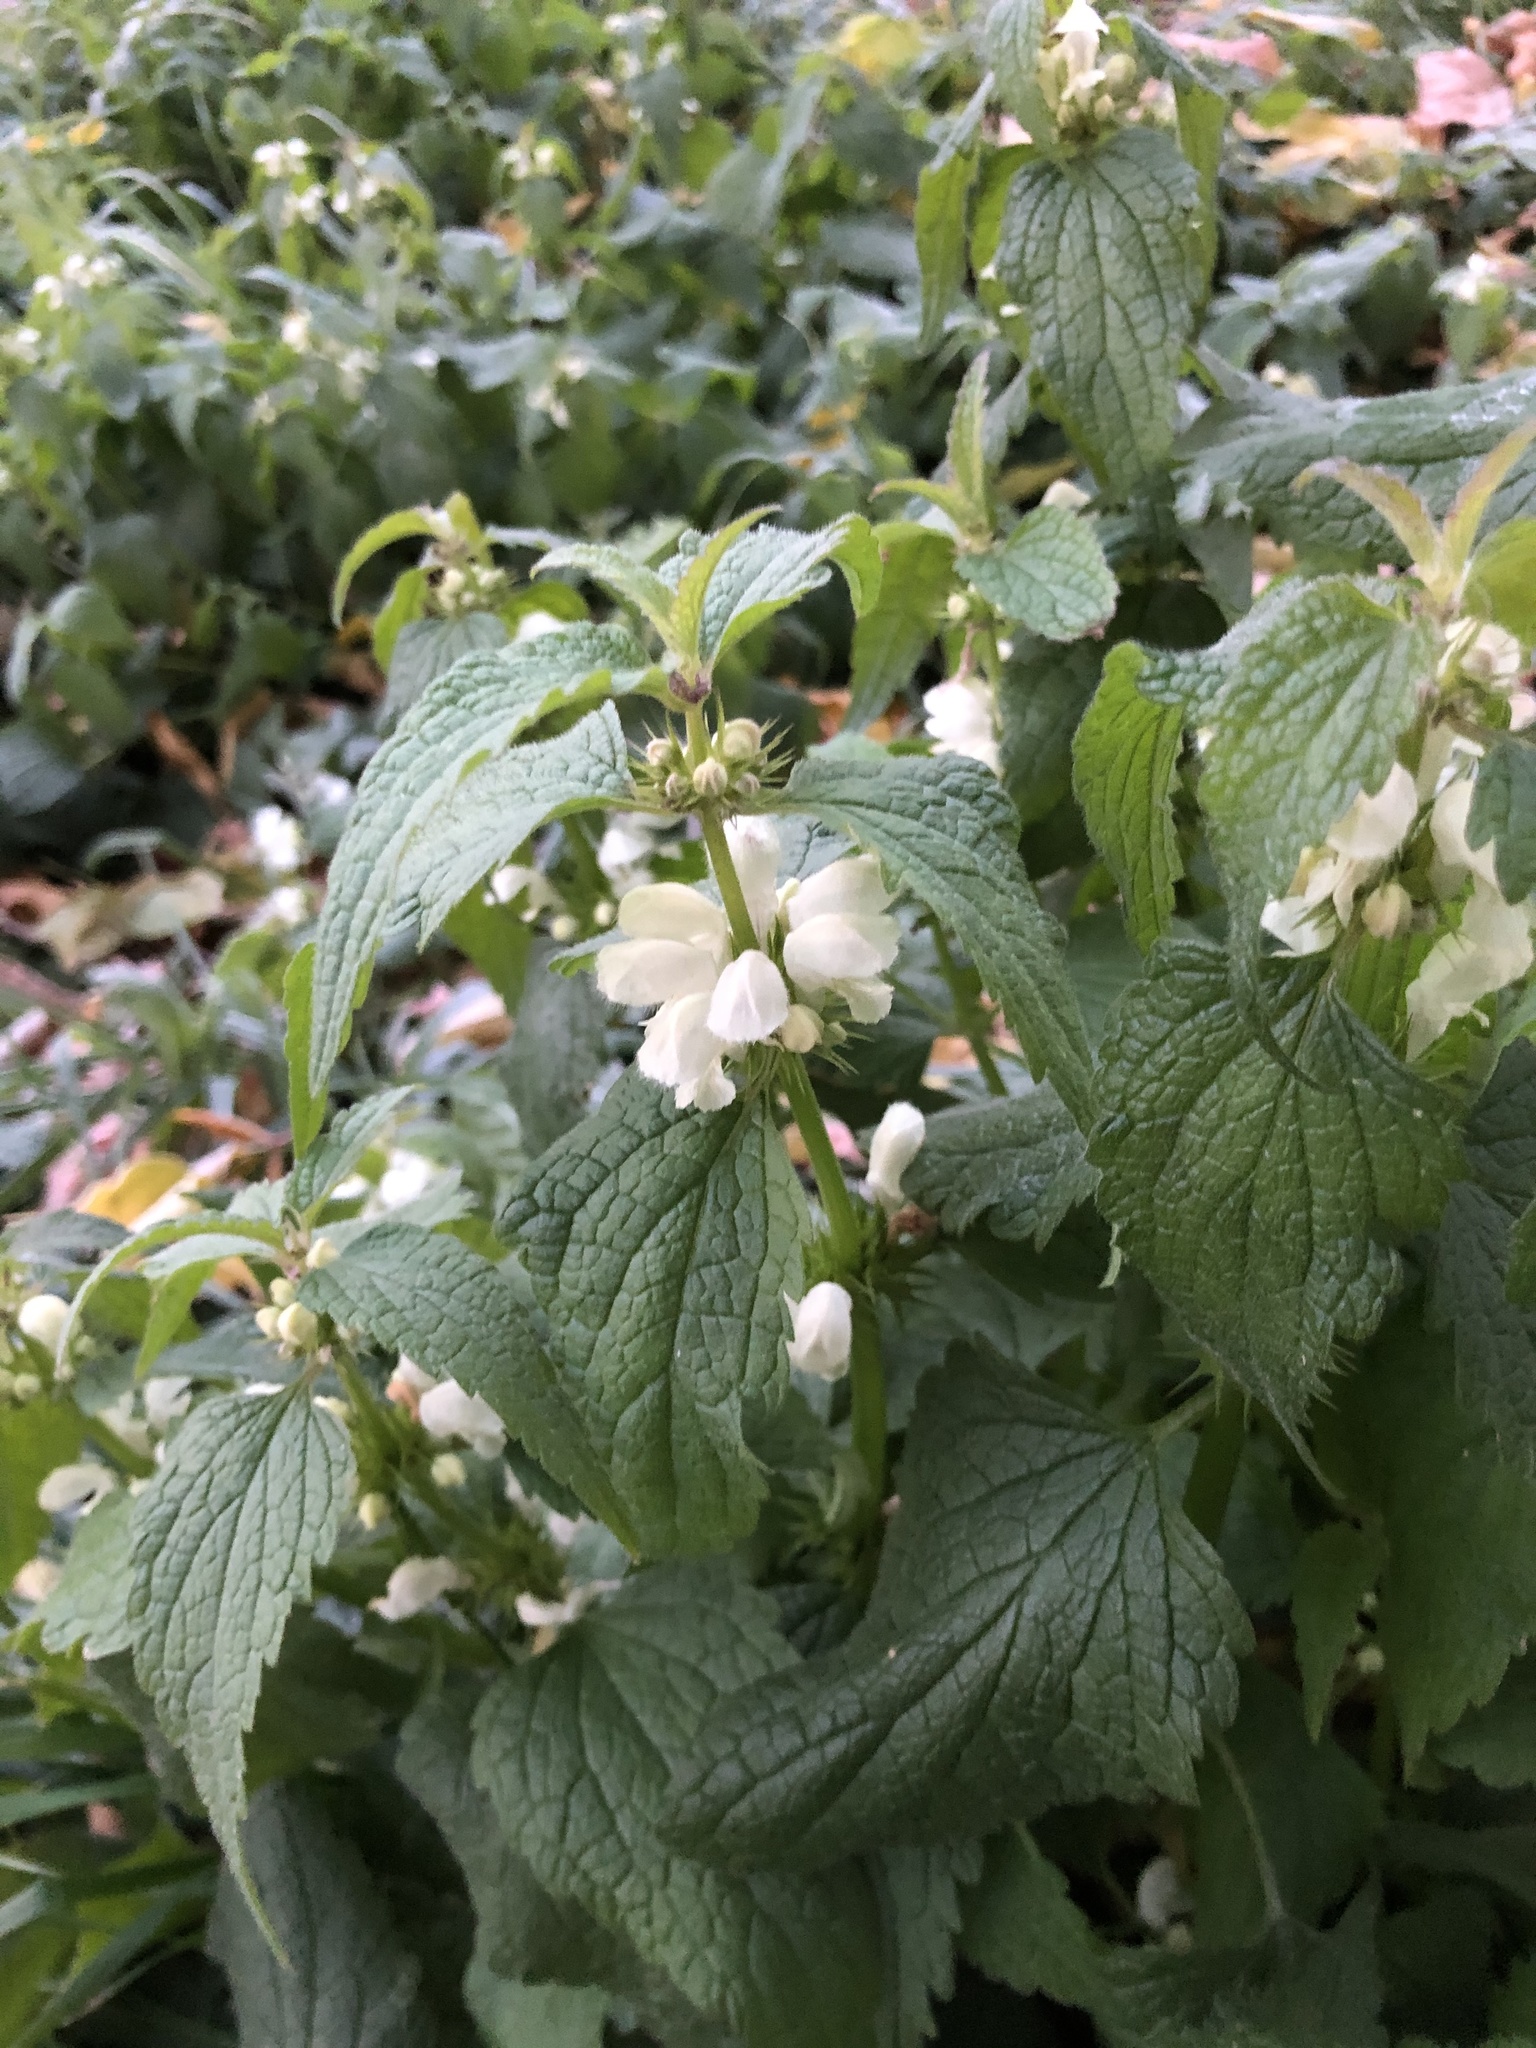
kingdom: Plantae
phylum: Tracheophyta
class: Magnoliopsida
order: Lamiales
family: Lamiaceae
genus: Lamium
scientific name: Lamium album
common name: White dead-nettle
